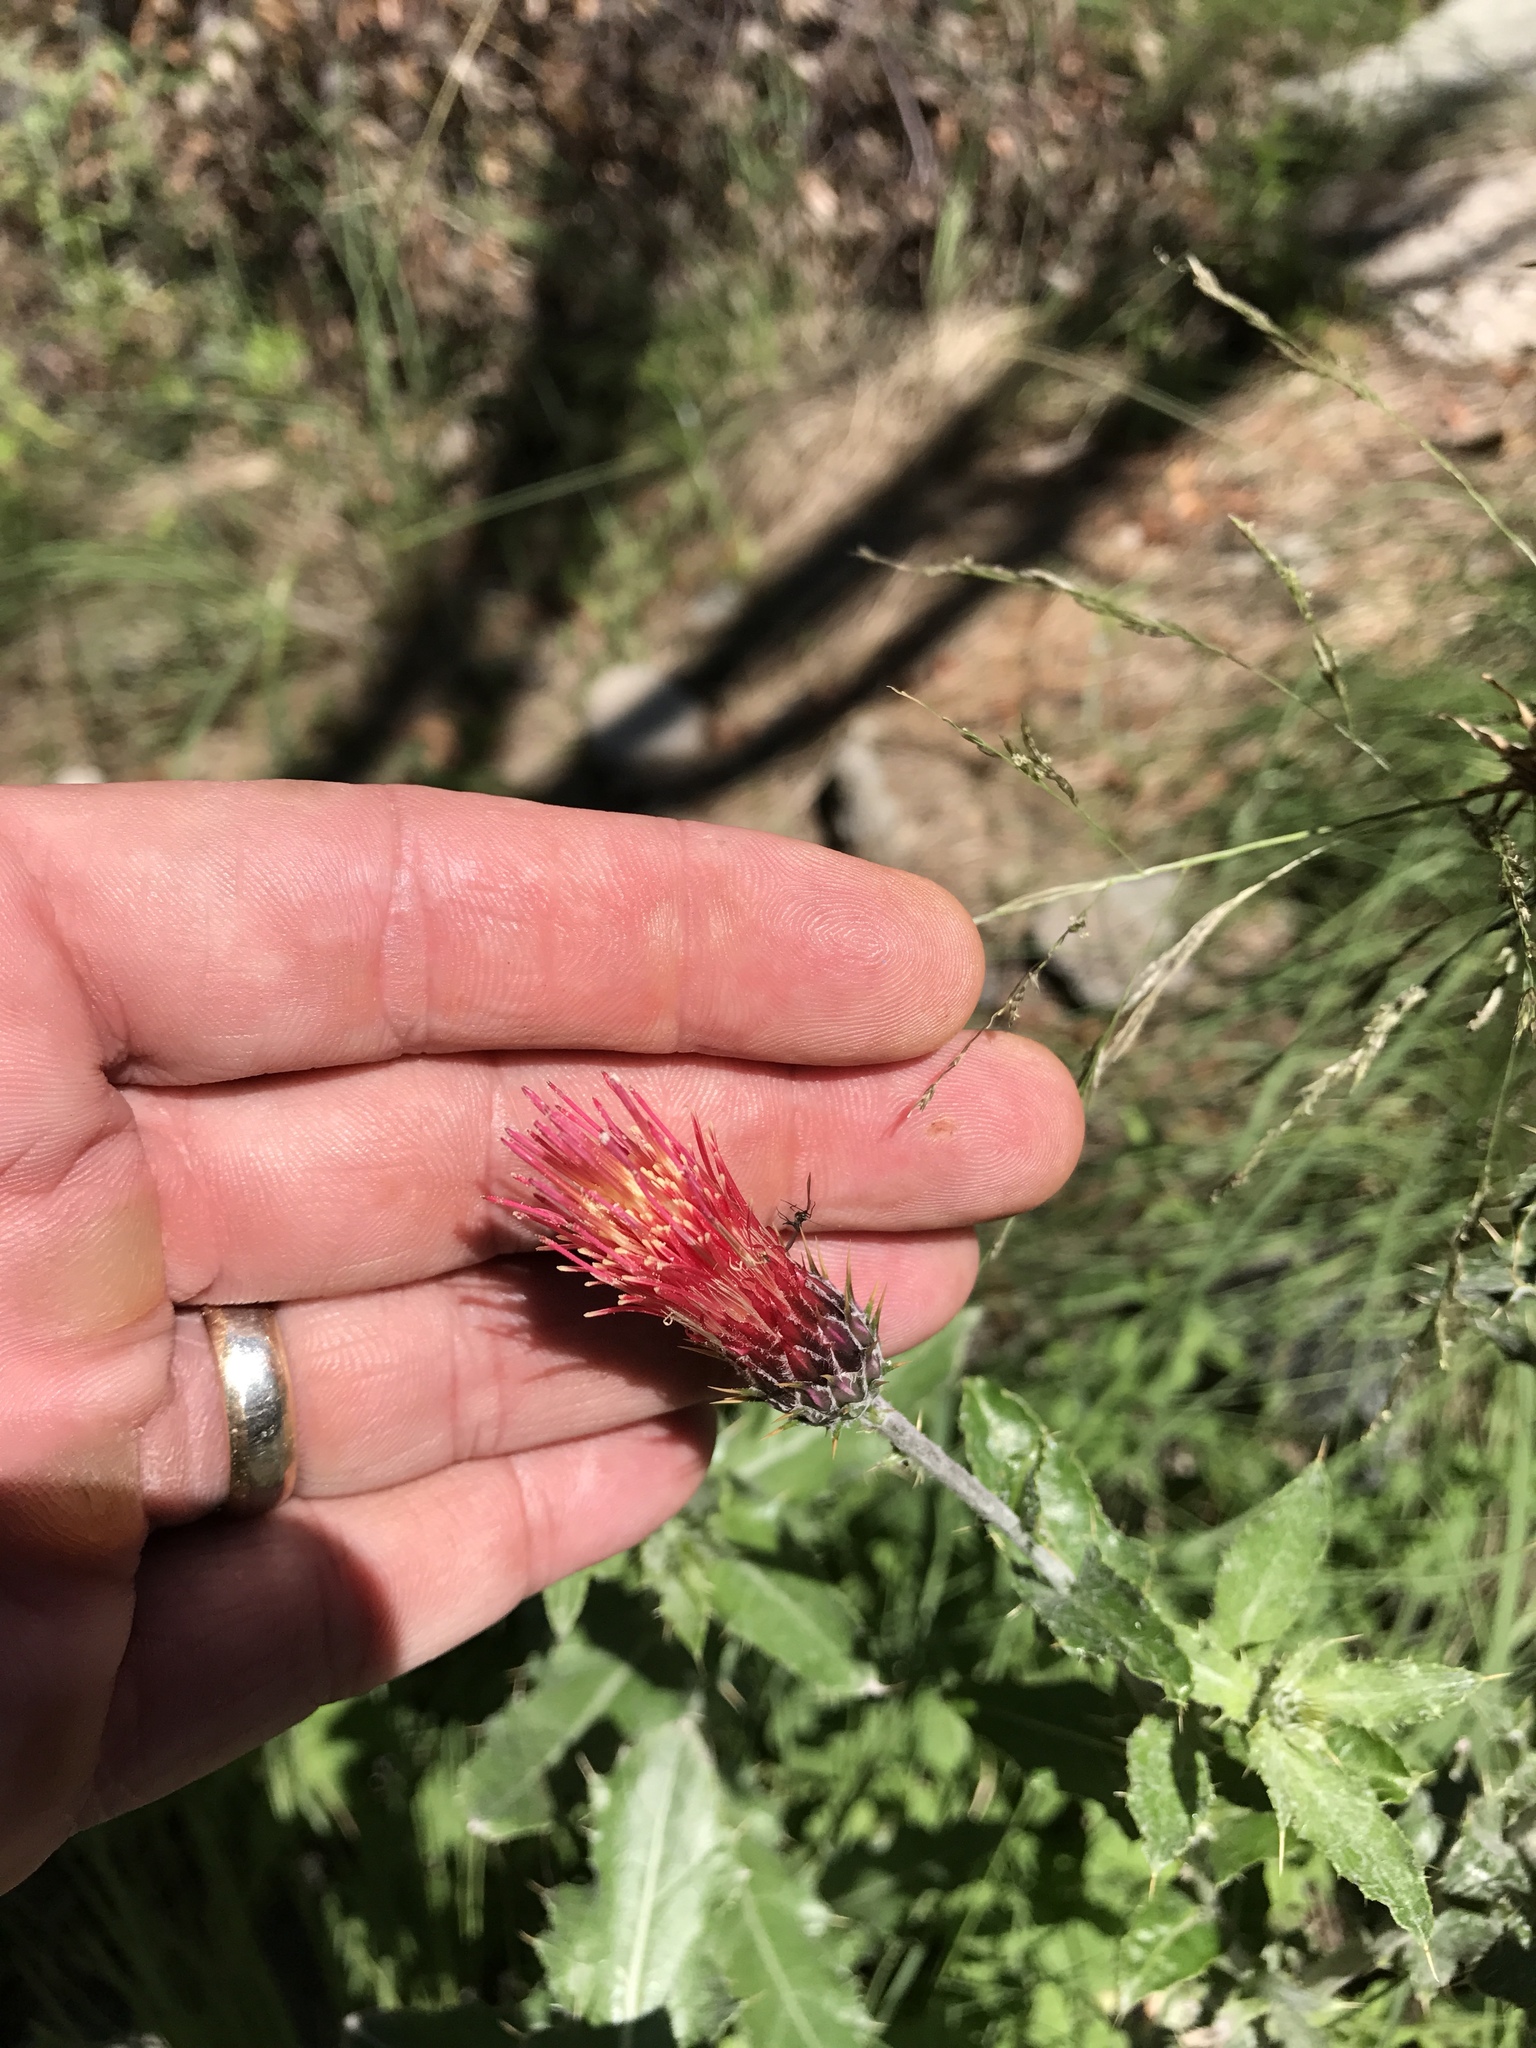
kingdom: Plantae
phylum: Tracheophyta
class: Magnoliopsida
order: Asterales
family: Asteraceae
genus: Cirsium
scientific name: Cirsium arizonicum
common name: Arizona thistle
